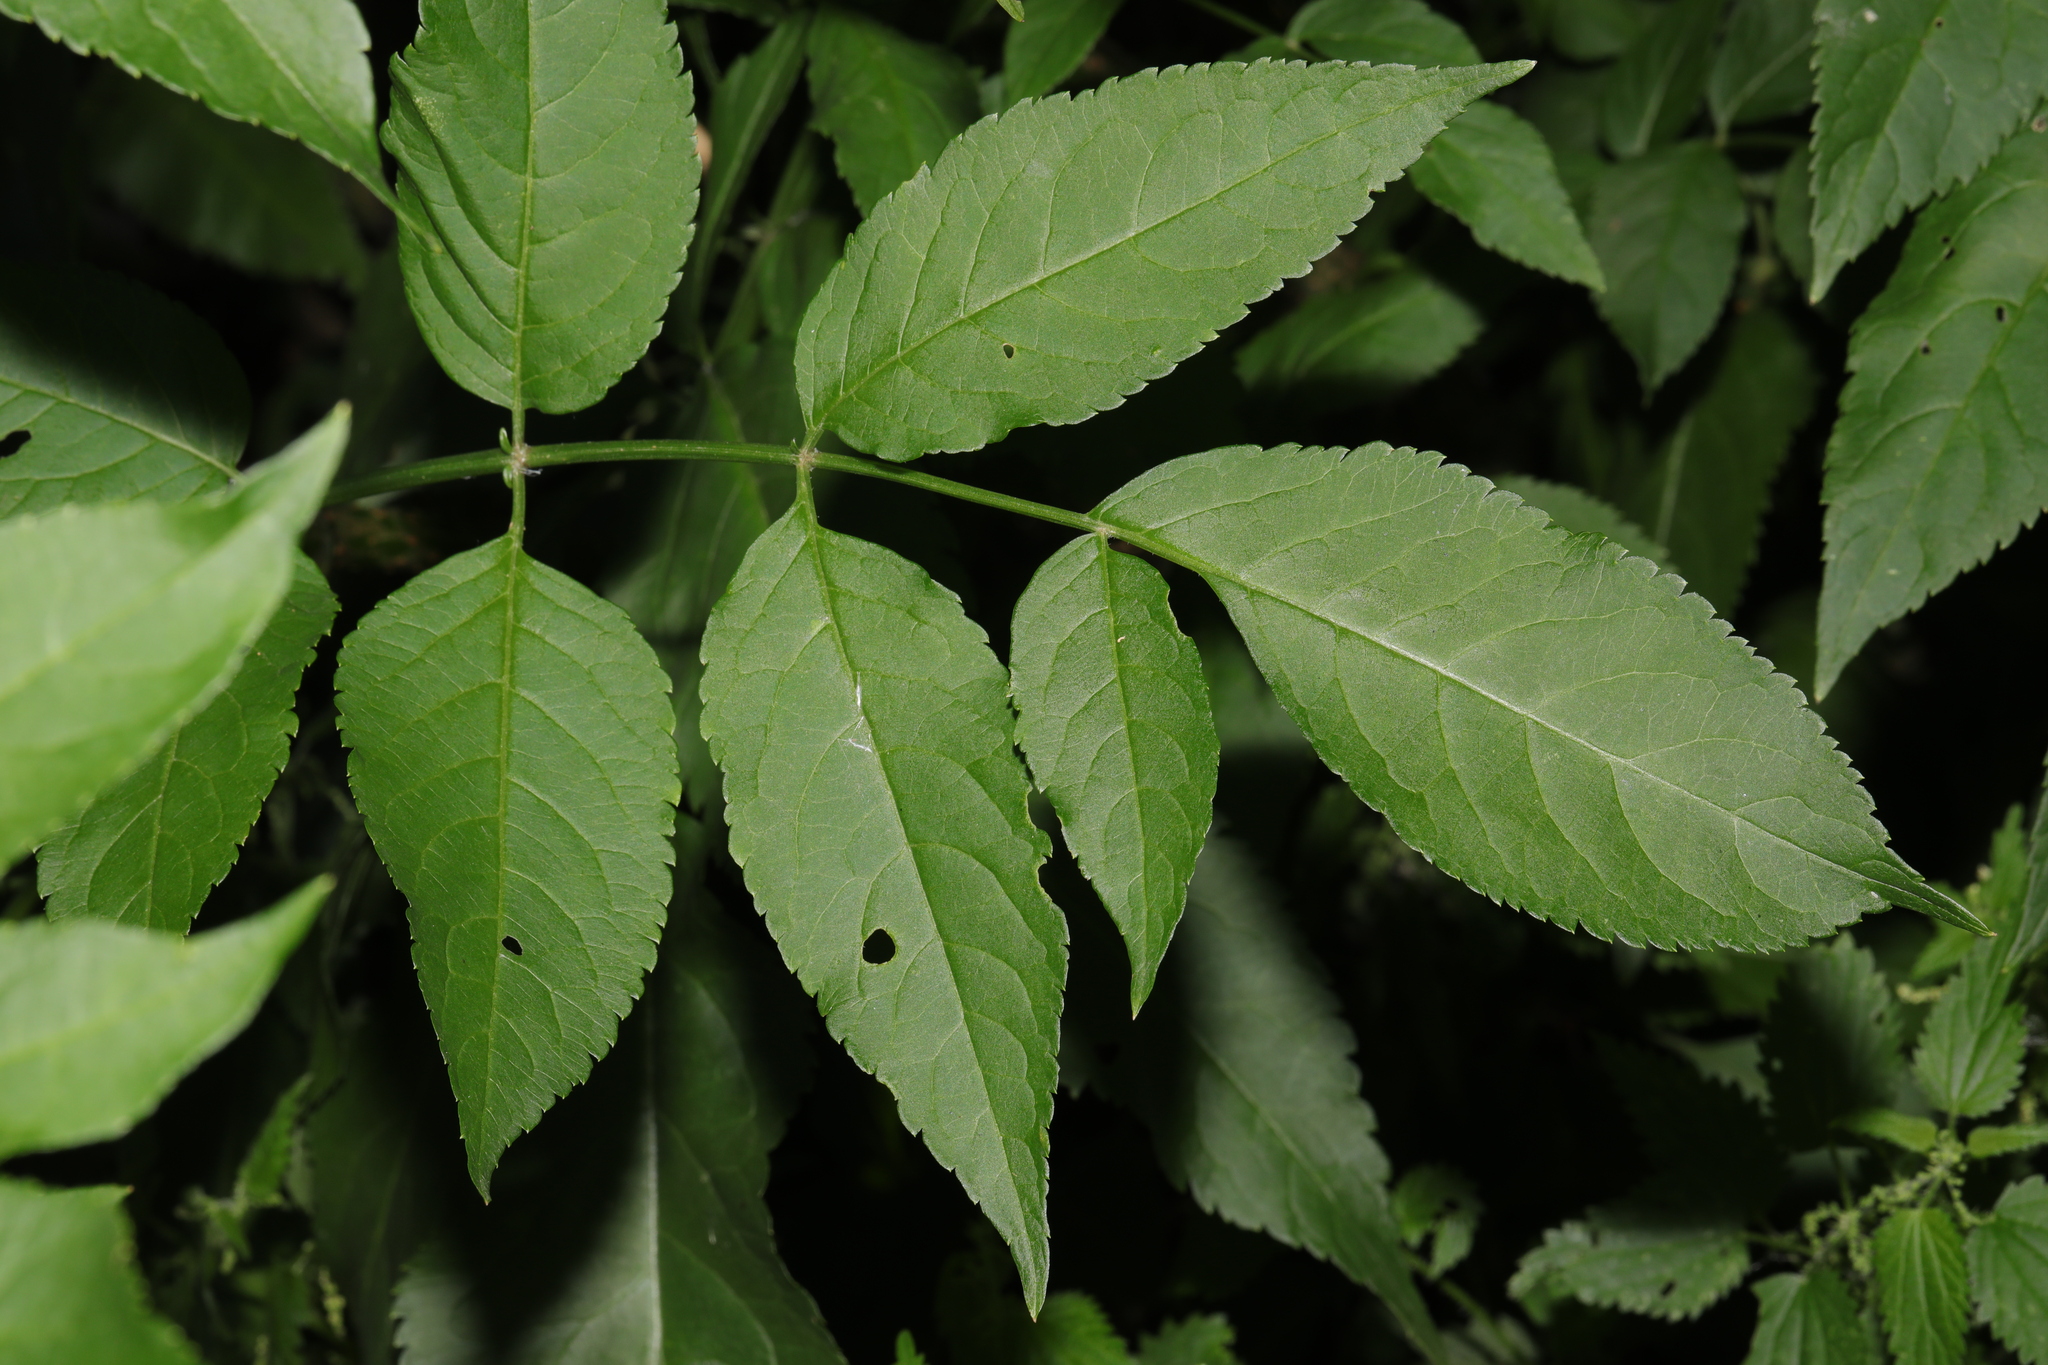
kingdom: Plantae
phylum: Tracheophyta
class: Magnoliopsida
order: Dipsacales
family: Viburnaceae
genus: Sambucus
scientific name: Sambucus nigra
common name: Elder
